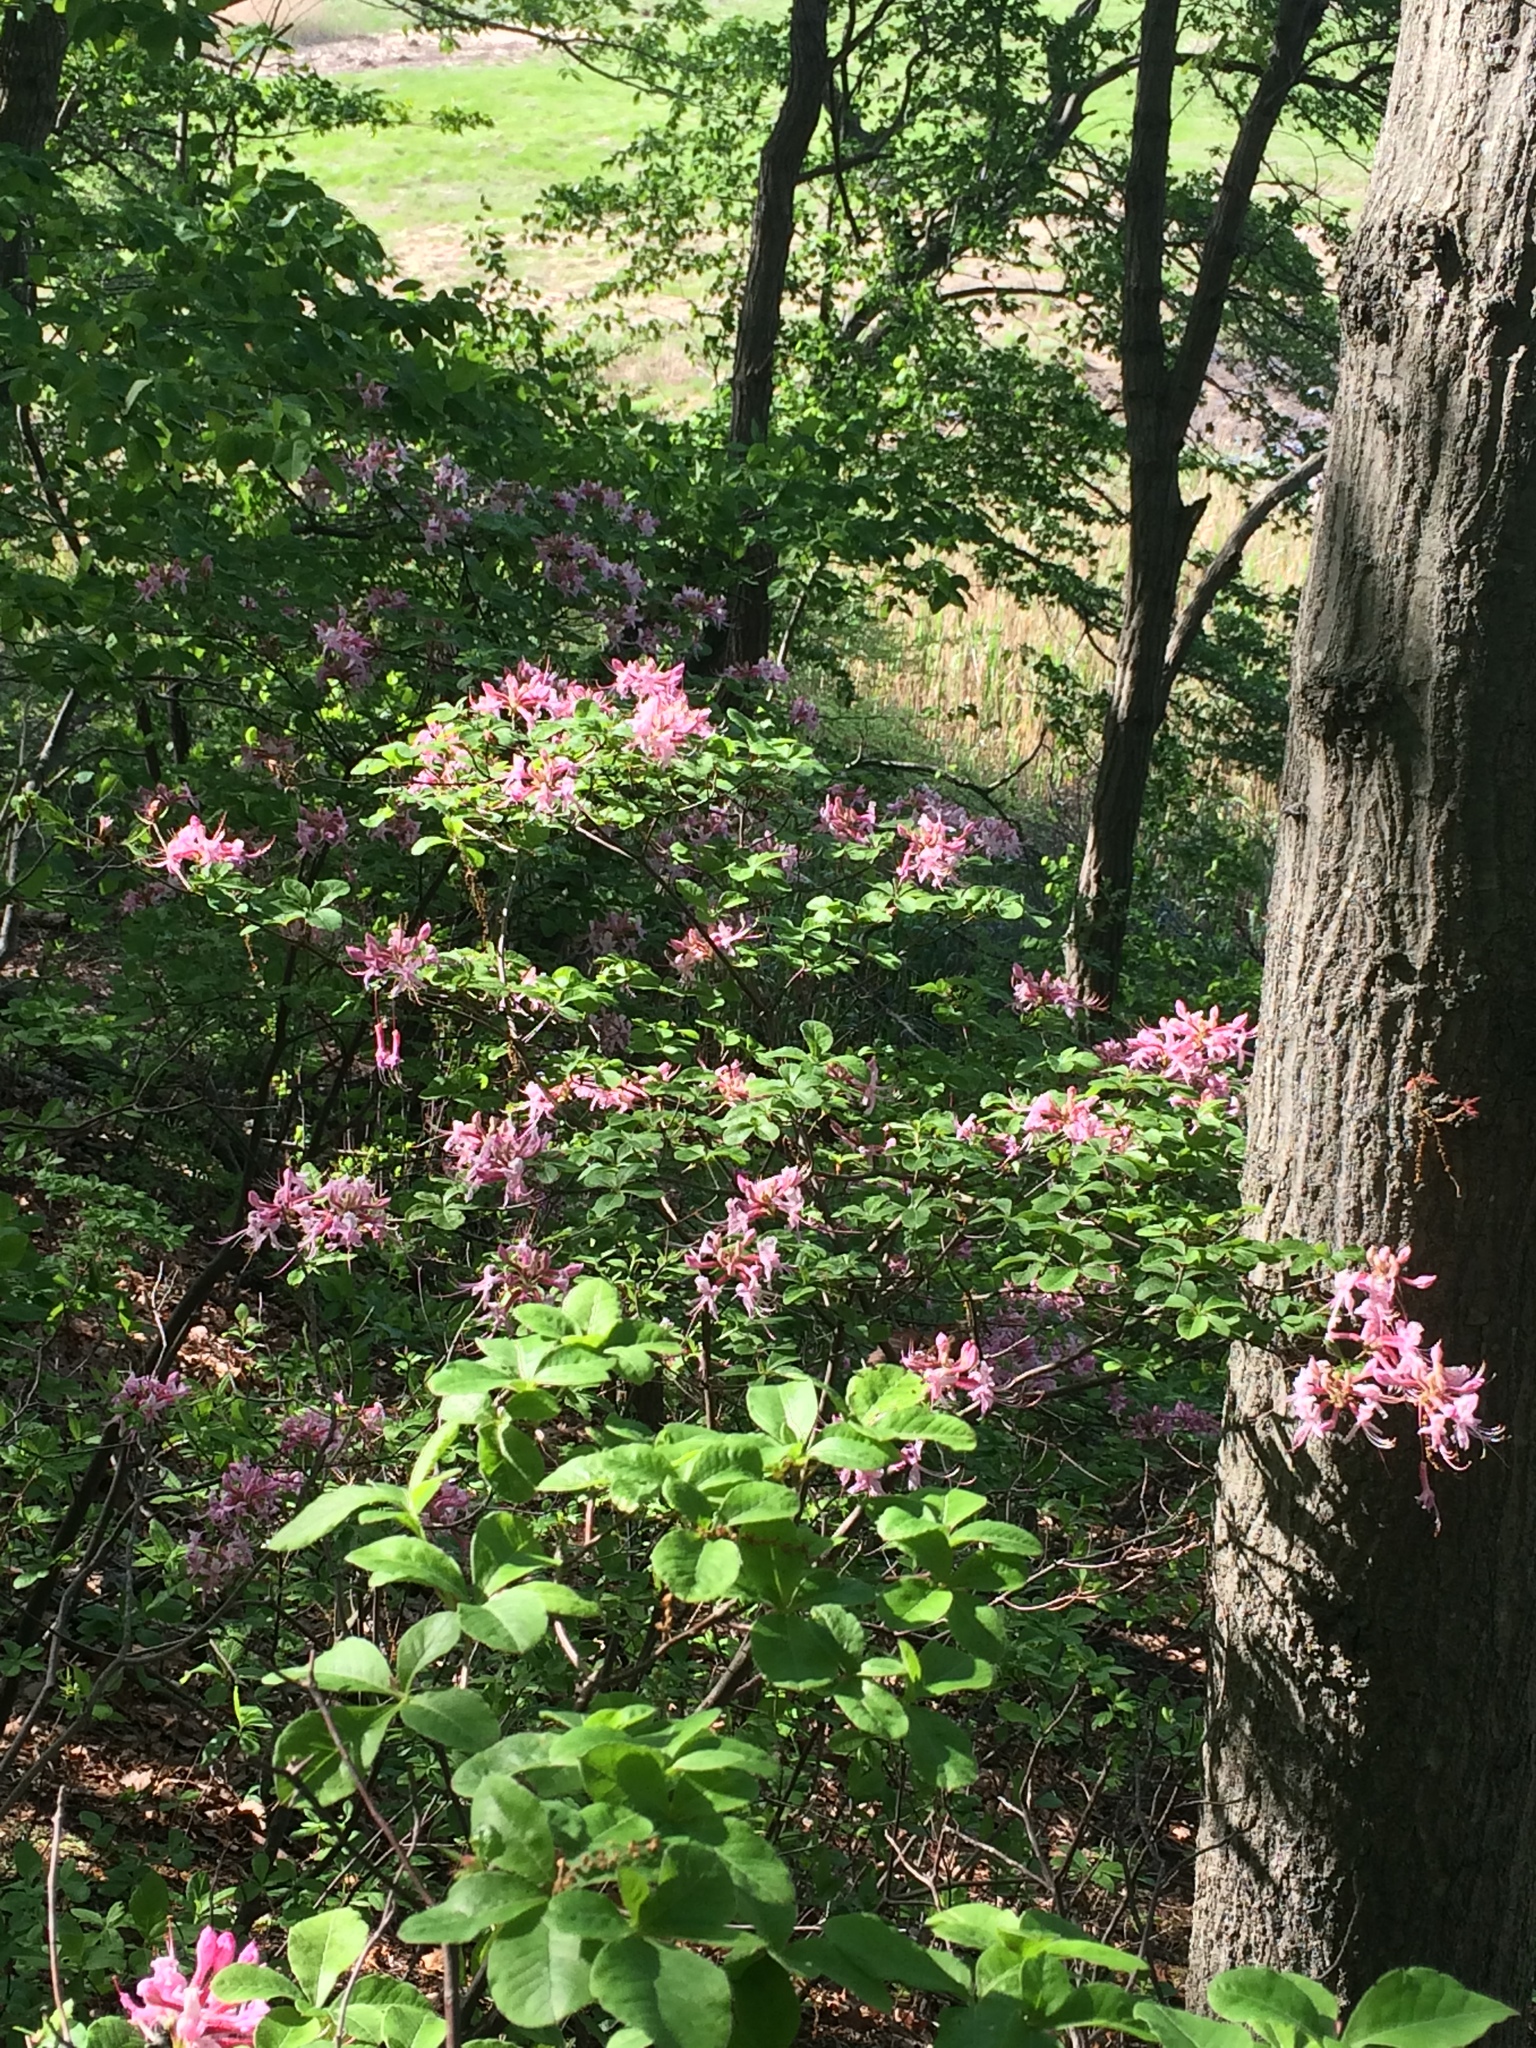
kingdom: Plantae
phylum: Tracheophyta
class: Magnoliopsida
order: Ericales
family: Ericaceae
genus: Rhododendron
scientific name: Rhododendron periclymenoides
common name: Election-pink
